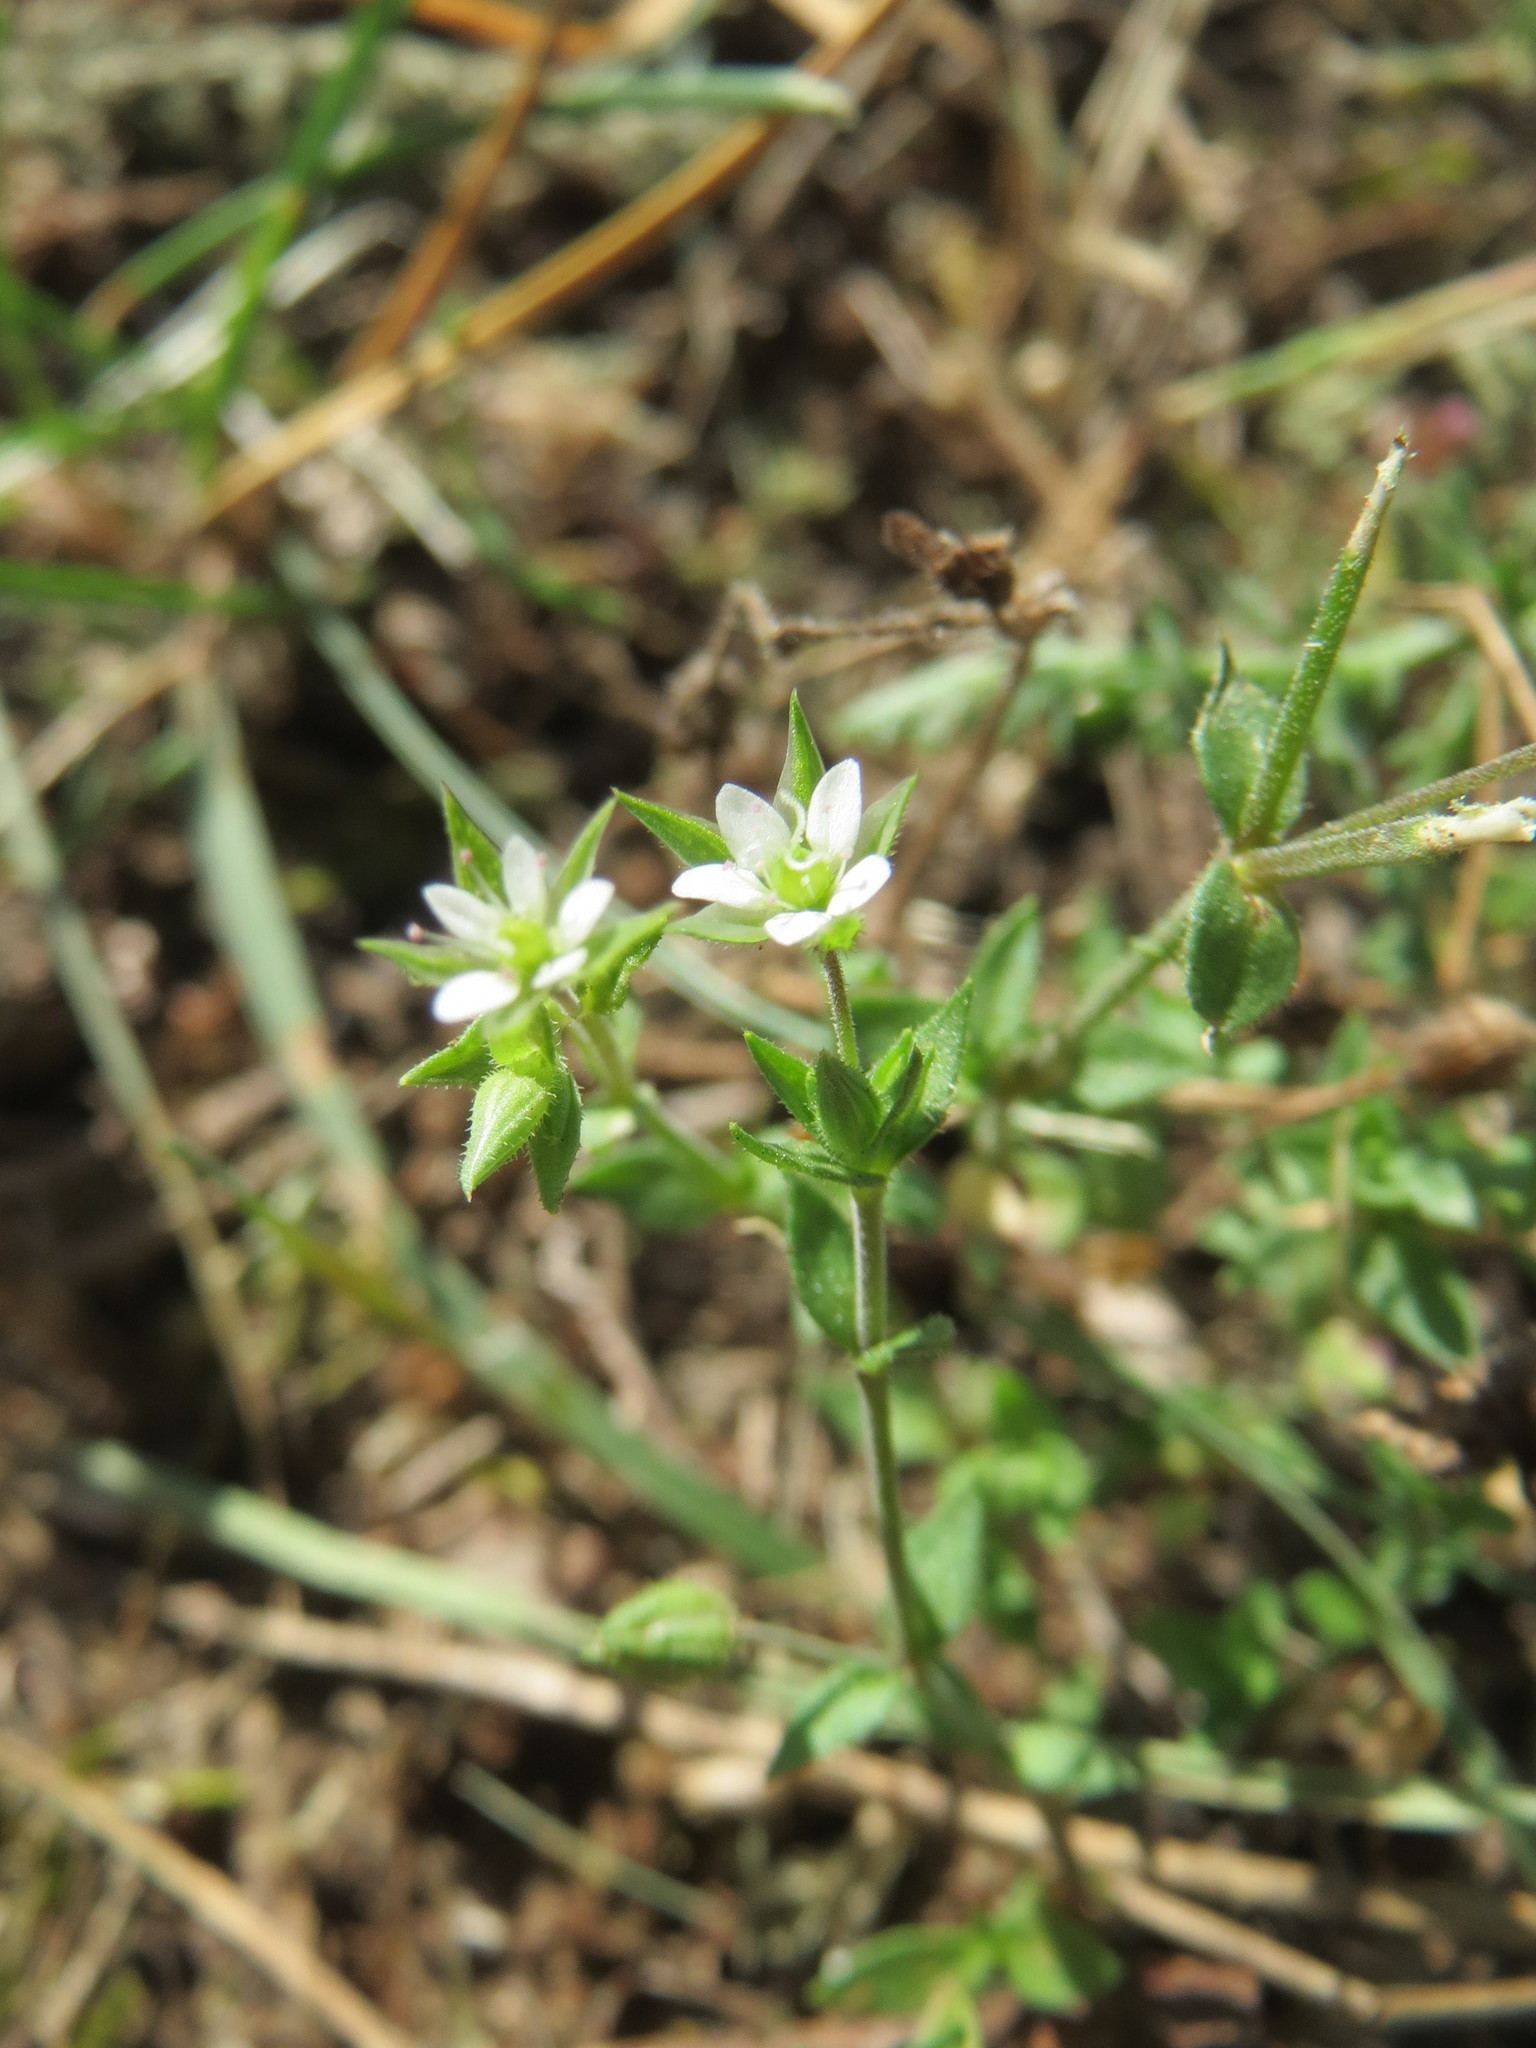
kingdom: Plantae
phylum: Tracheophyta
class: Magnoliopsida
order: Caryophyllales
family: Caryophyllaceae
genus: Arenaria
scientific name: Arenaria serpyllifolia
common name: Thyme-leaved sandwort
